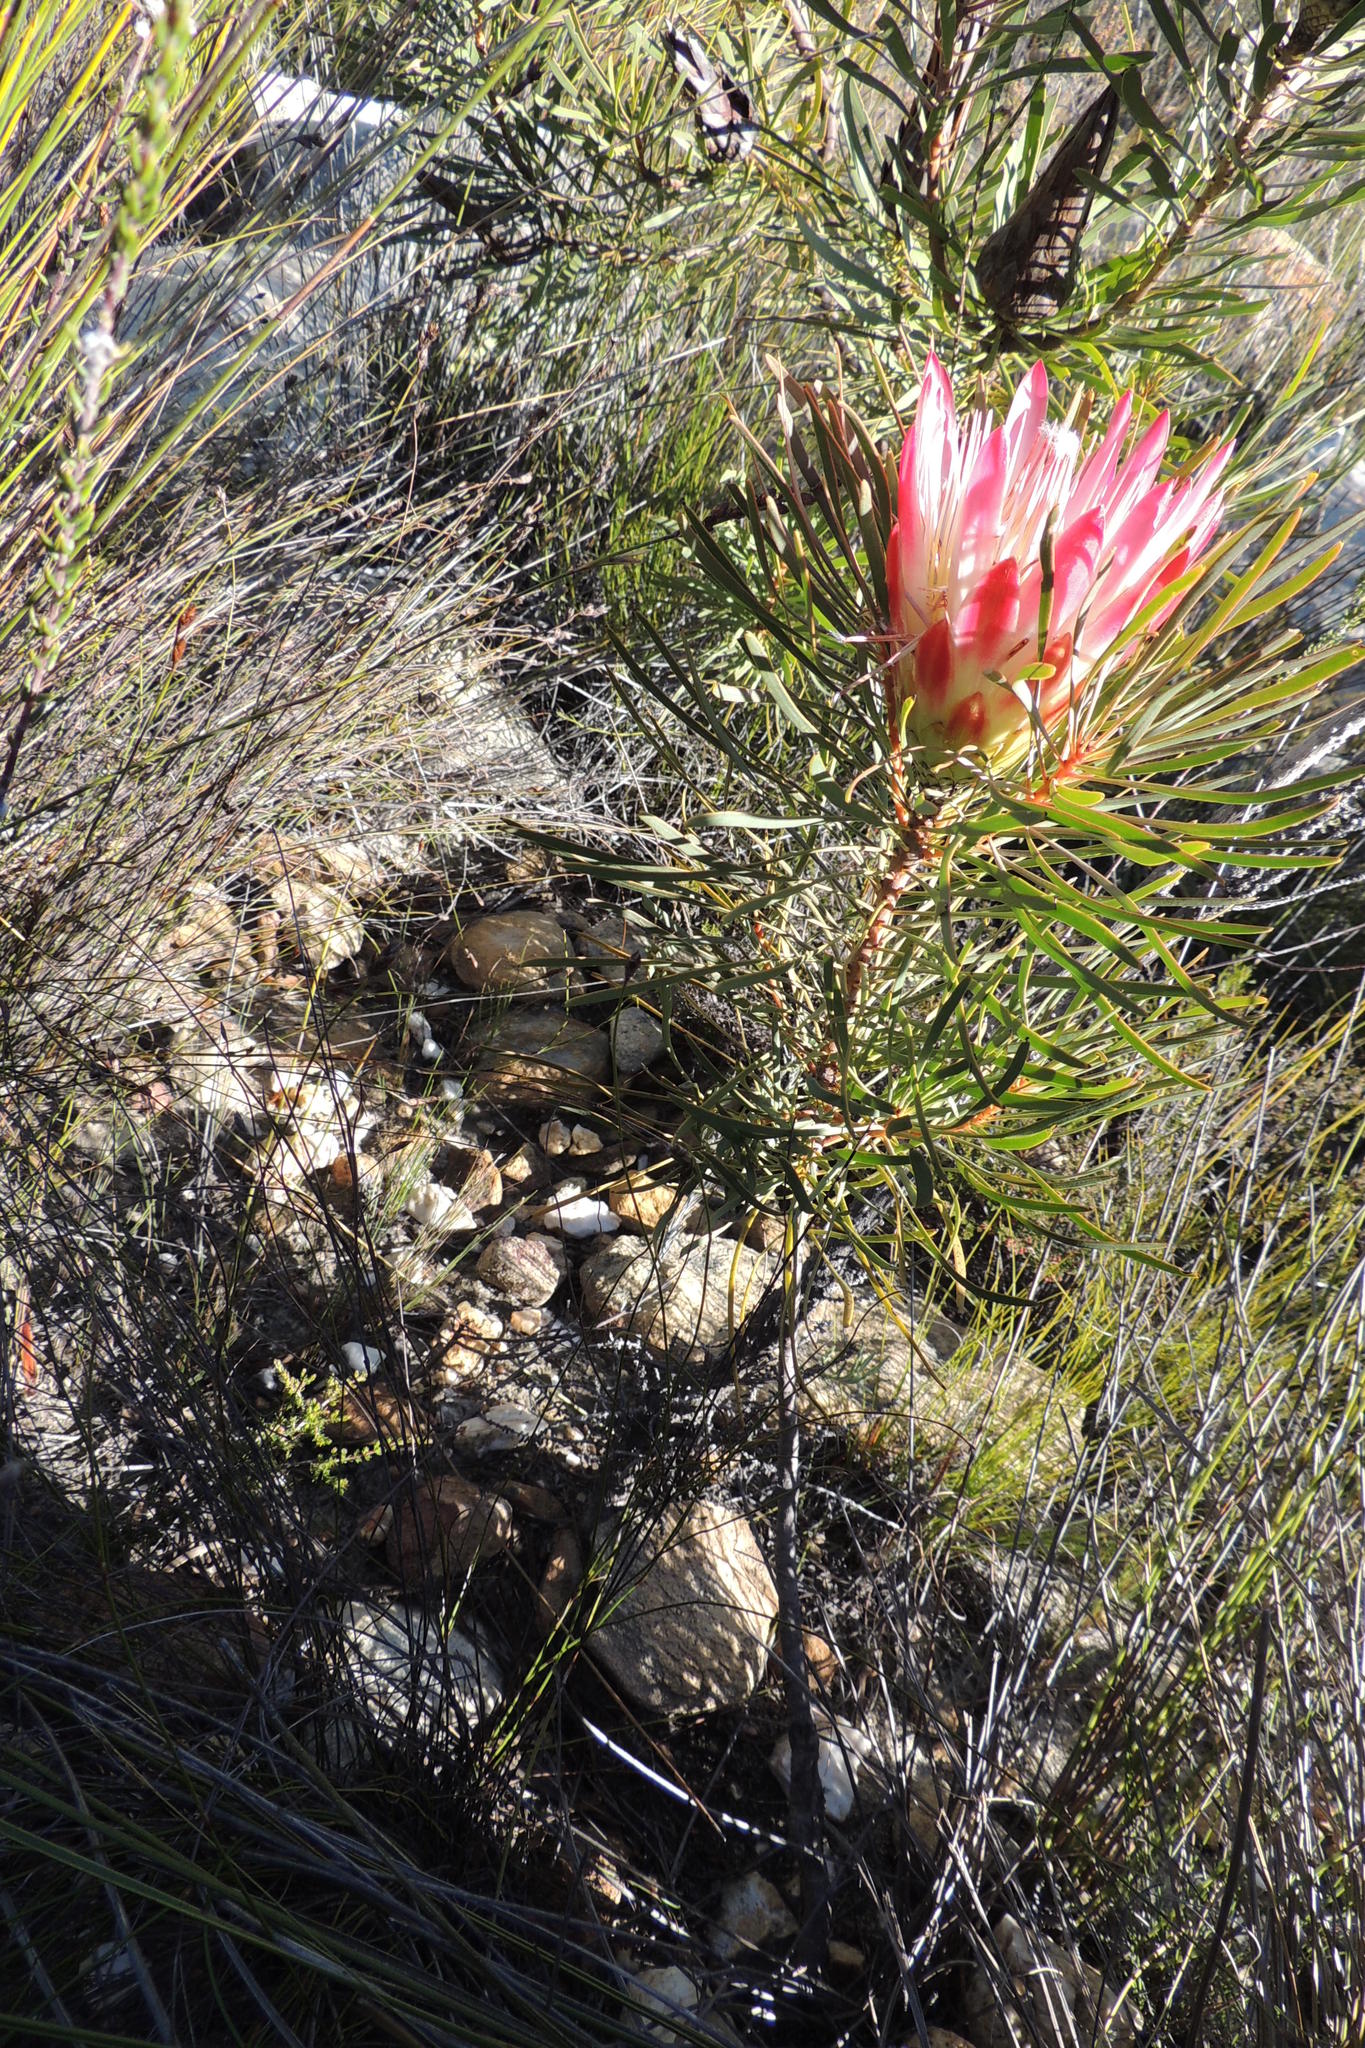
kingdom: Plantae
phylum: Tracheophyta
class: Magnoliopsida
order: Proteales
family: Proteaceae
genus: Protea
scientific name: Protea repens
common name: Sugarbush
